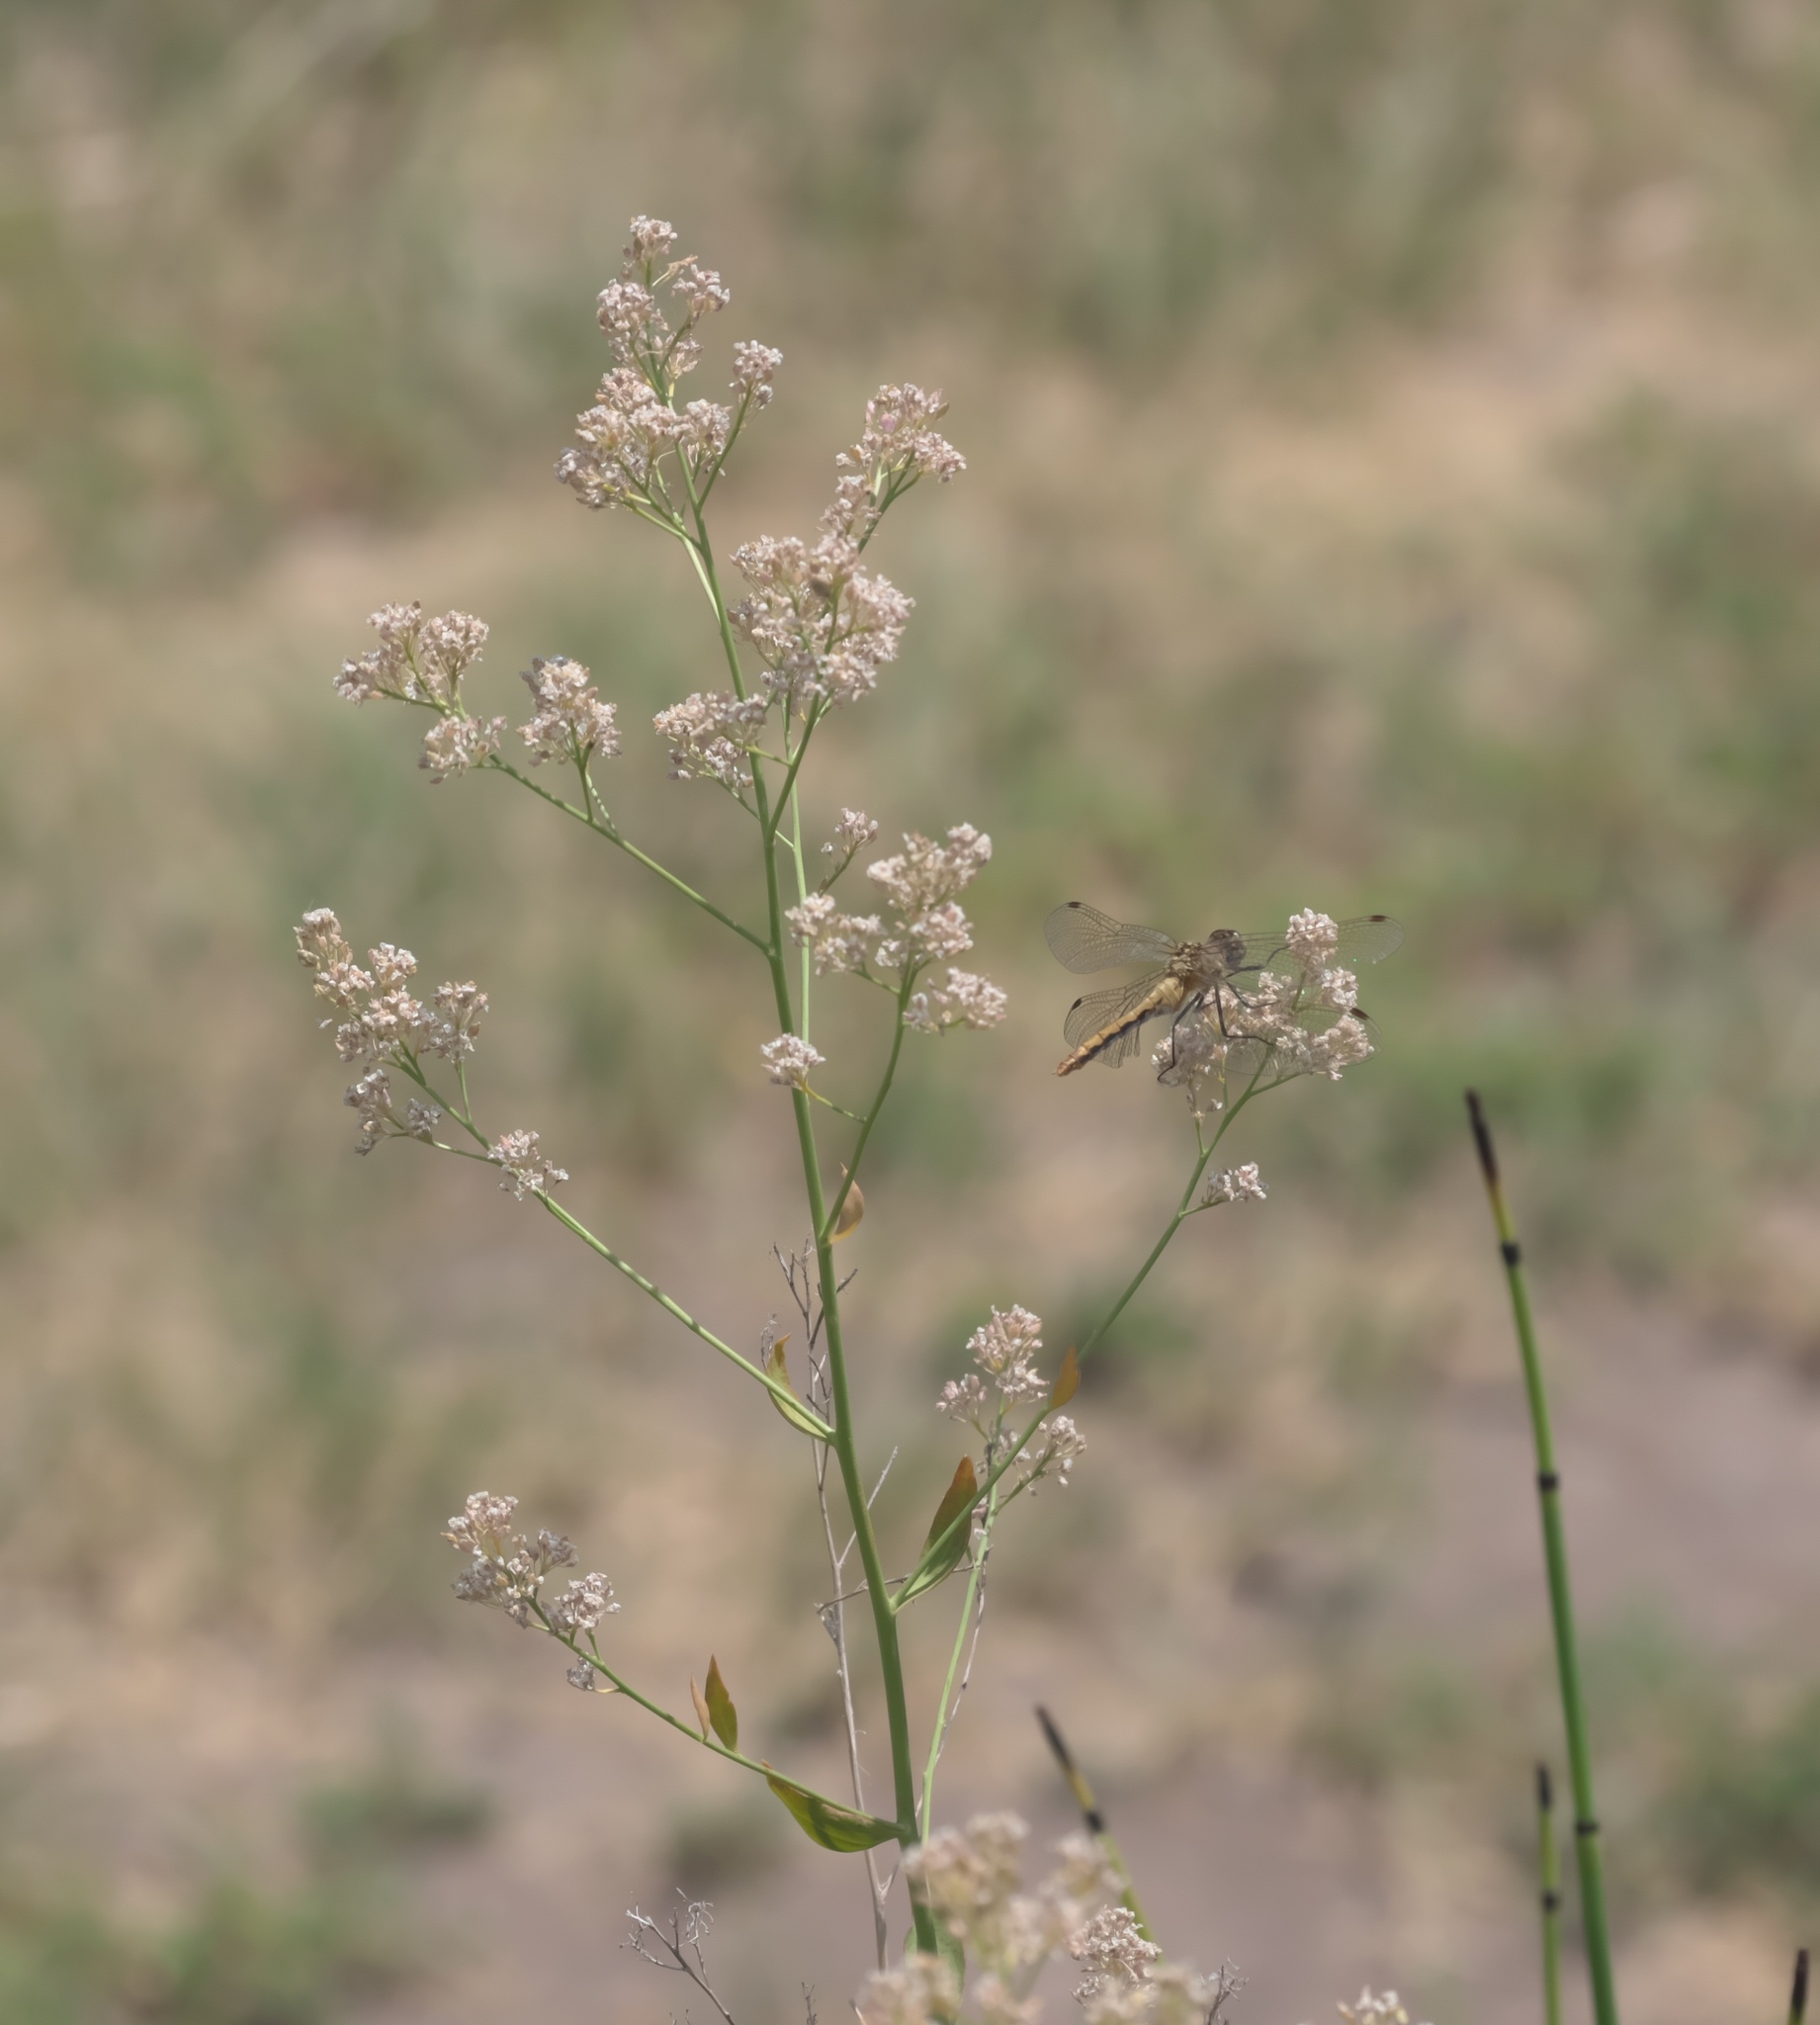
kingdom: Plantae
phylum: Tracheophyta
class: Magnoliopsida
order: Brassicales
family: Brassicaceae
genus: Lepidium
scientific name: Lepidium latifolium
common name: Dittander
